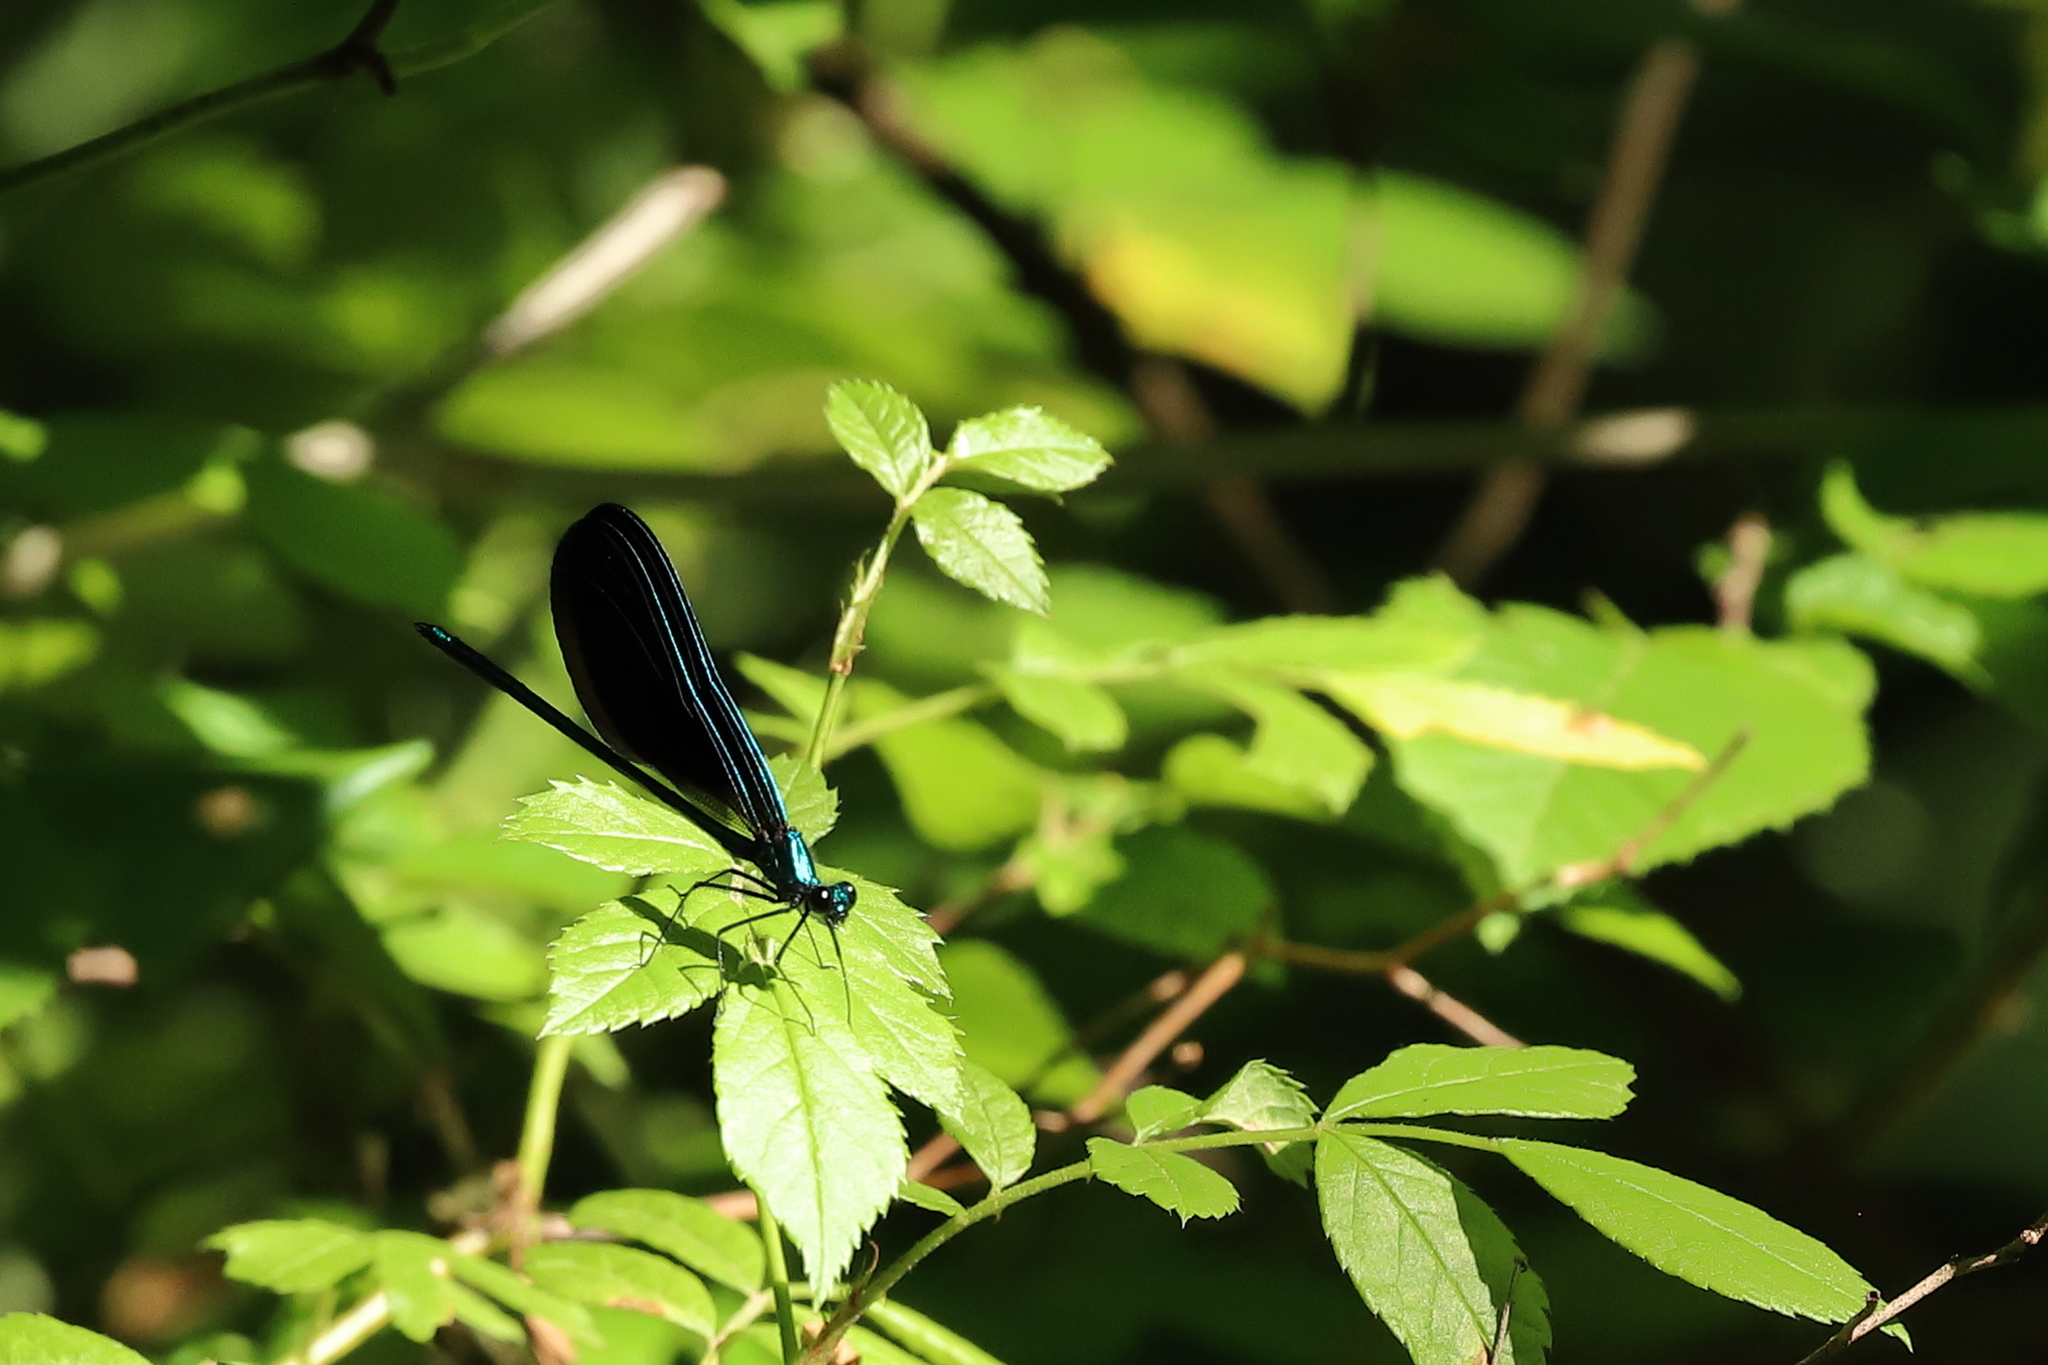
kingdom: Animalia
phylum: Arthropoda
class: Insecta
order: Odonata
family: Calopterygidae
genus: Calopteryx
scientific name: Calopteryx maculata
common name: Ebony jewelwing
